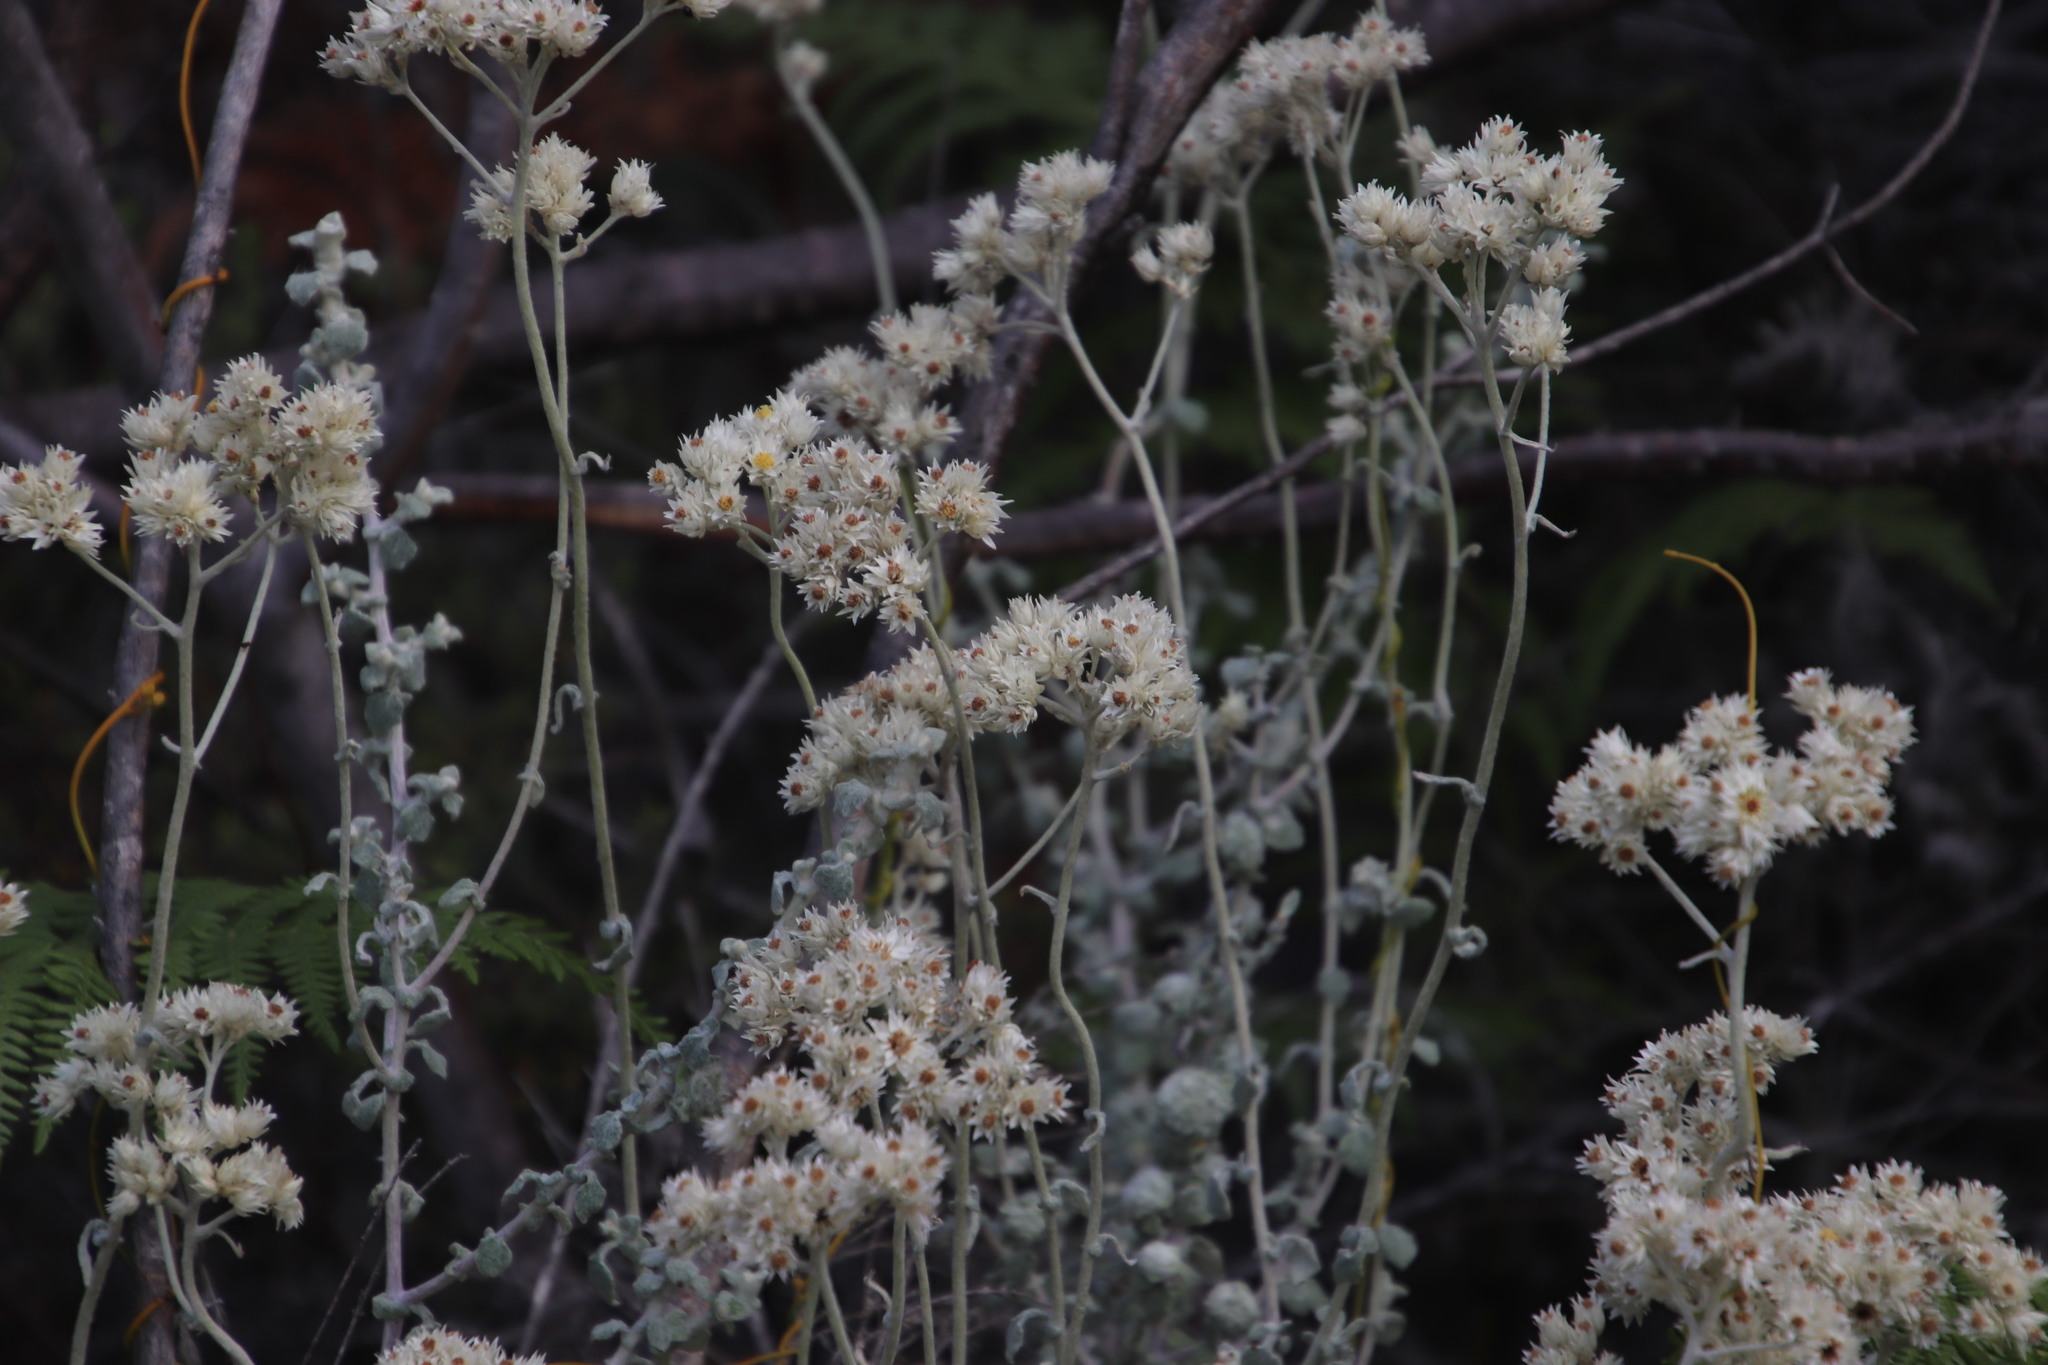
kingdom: Plantae
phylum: Tracheophyta
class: Magnoliopsida
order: Asterales
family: Asteraceae
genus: Helichrysum
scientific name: Helichrysum pandurifolium
